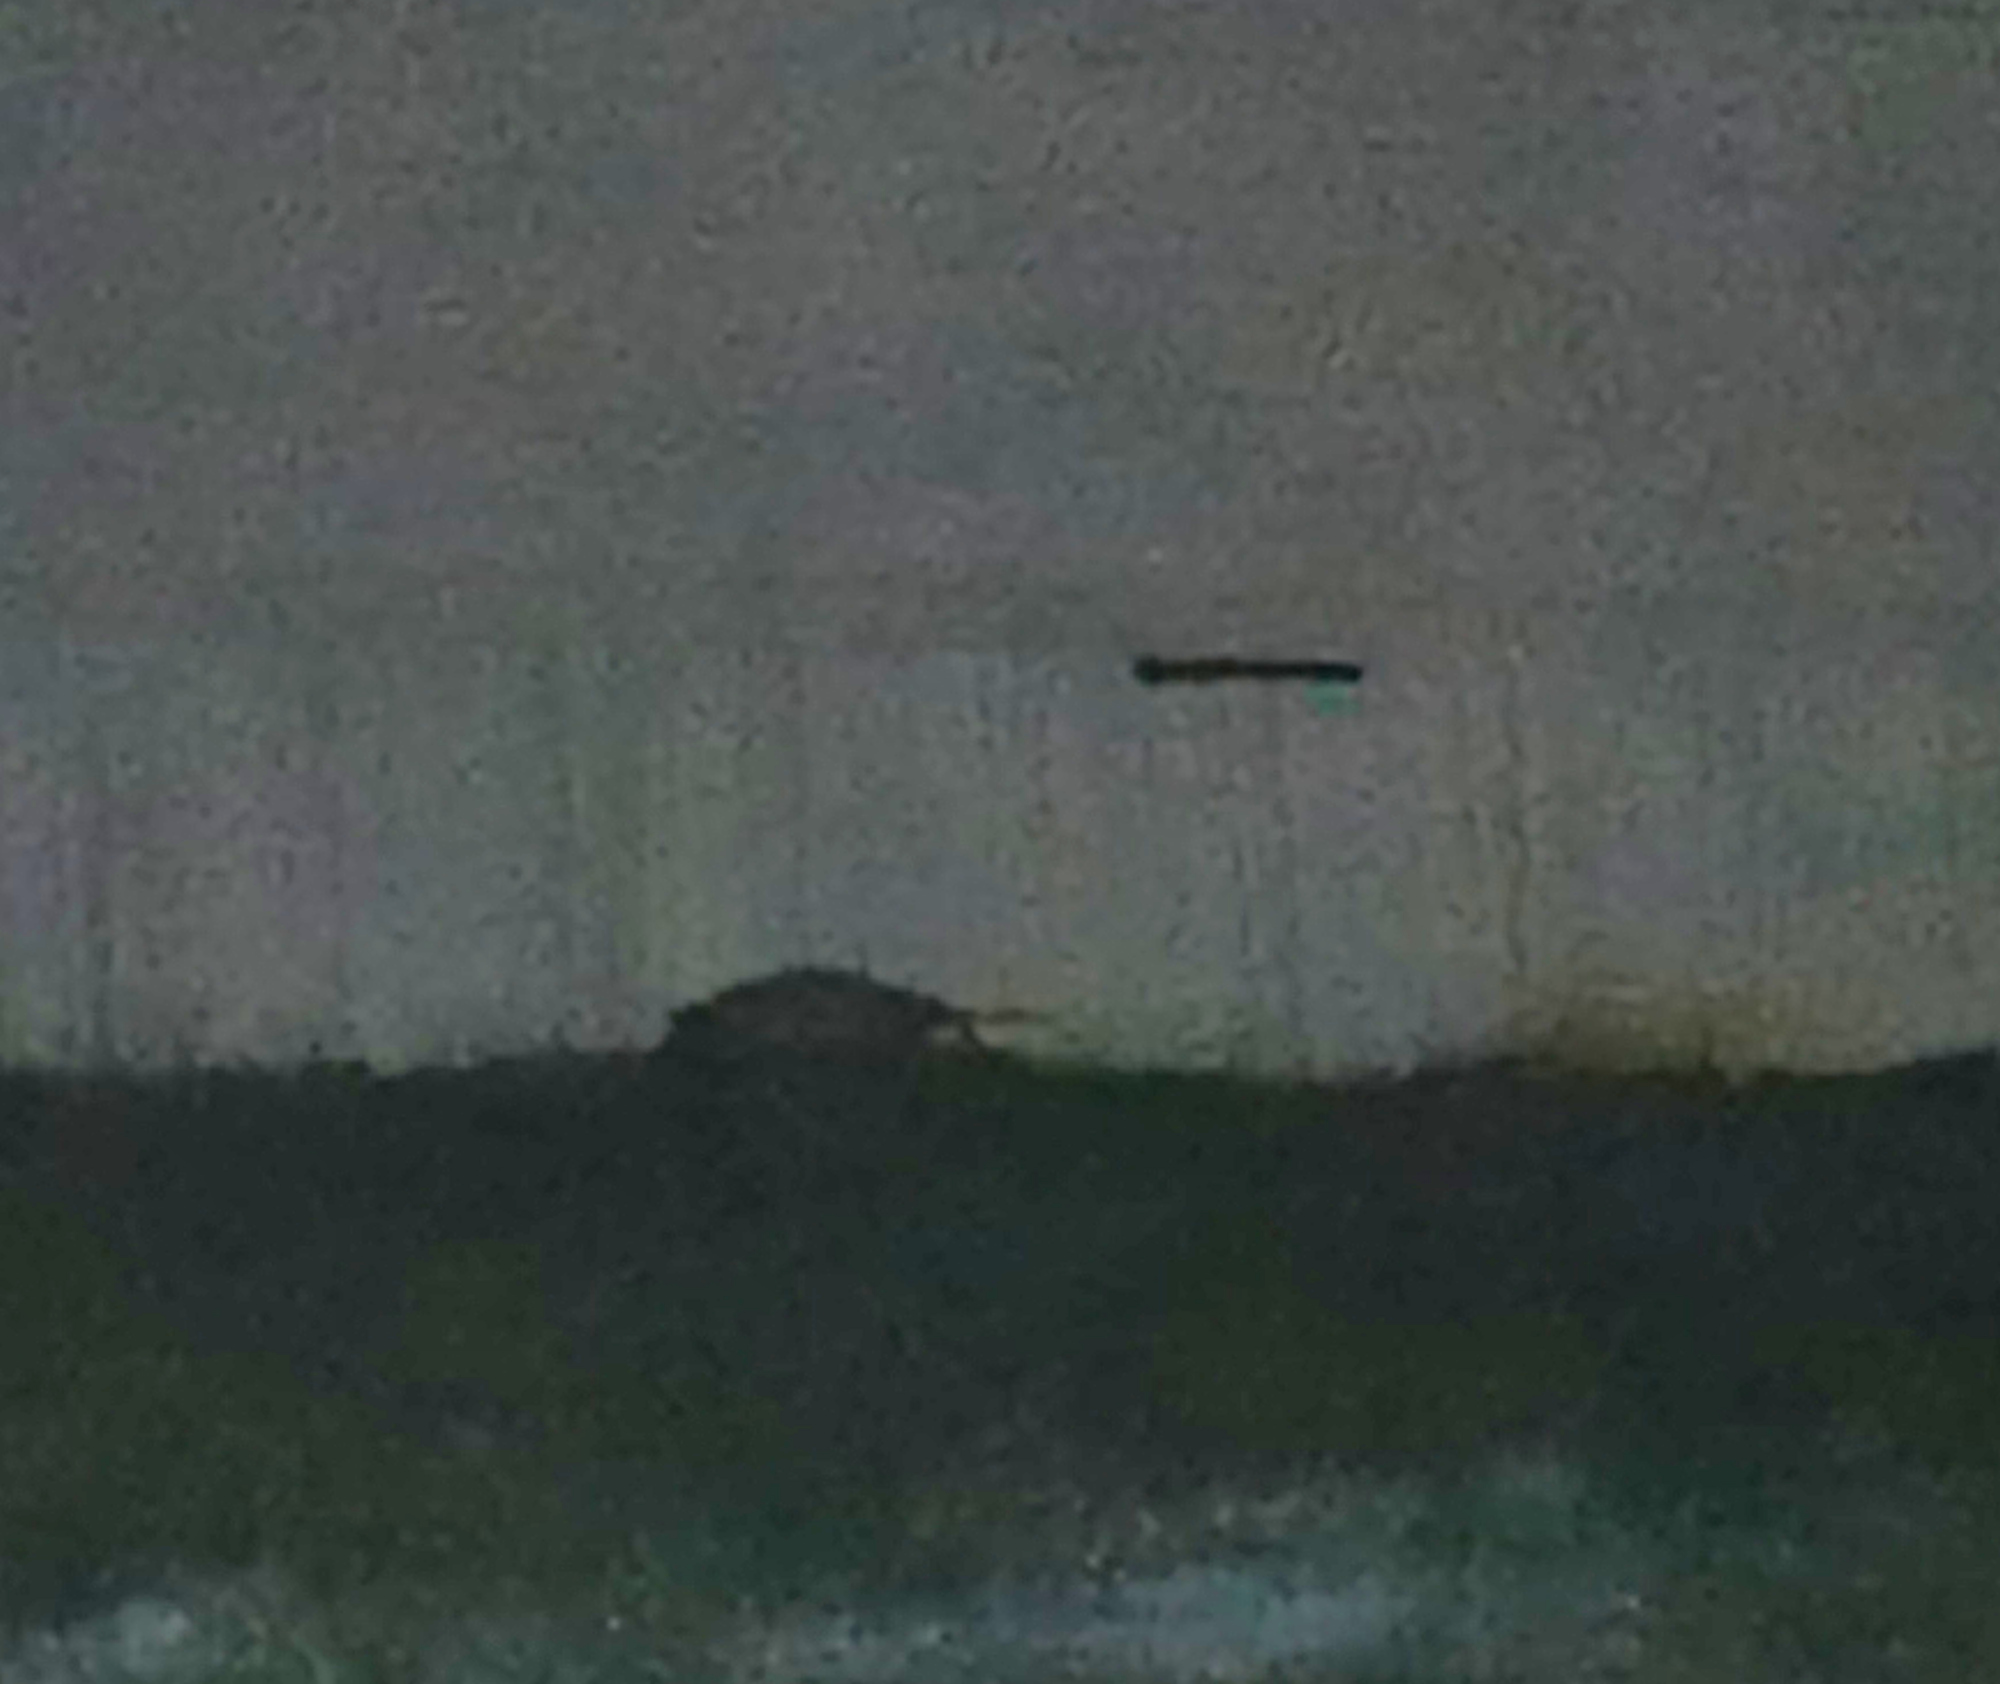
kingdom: Animalia
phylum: Chordata
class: Mammalia
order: Didelphimorphia
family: Didelphidae
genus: Didelphis
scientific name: Didelphis virginiana
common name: Virginia opossum
